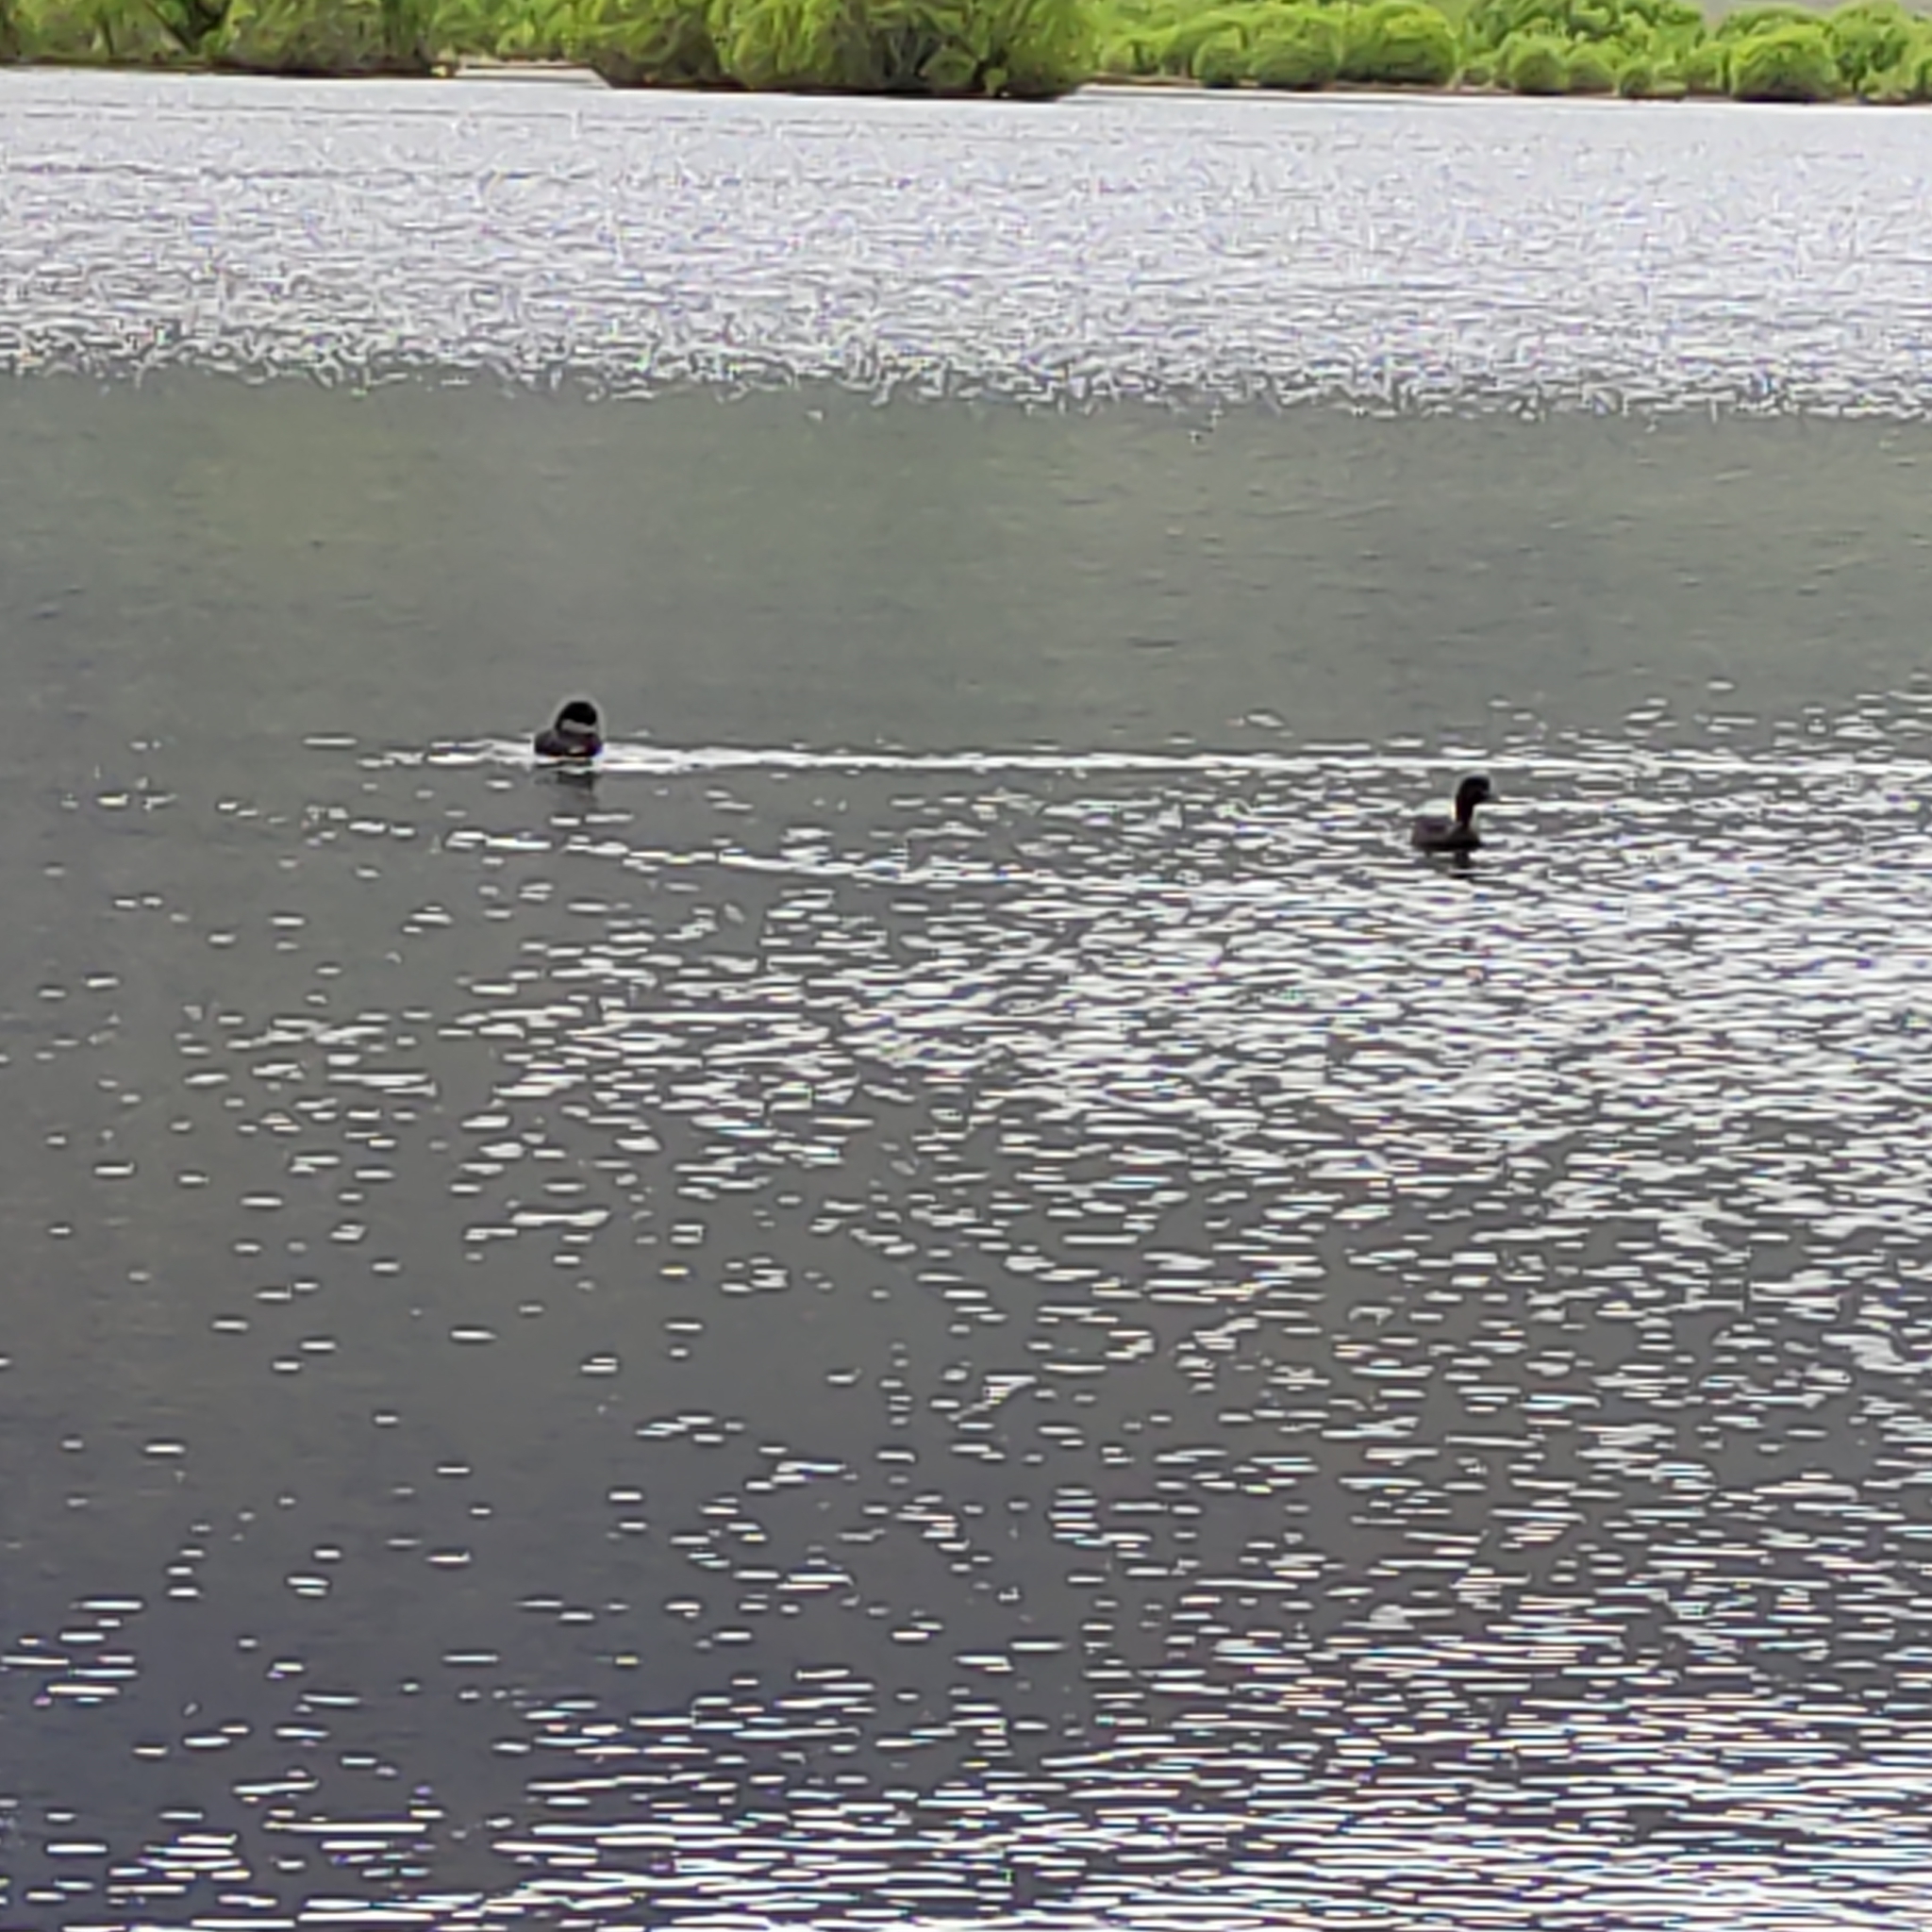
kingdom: Animalia
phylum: Chordata
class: Aves
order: Anseriformes
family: Anatidae
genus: Aythya
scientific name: Aythya novaeseelandiae
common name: New zealand scaup
